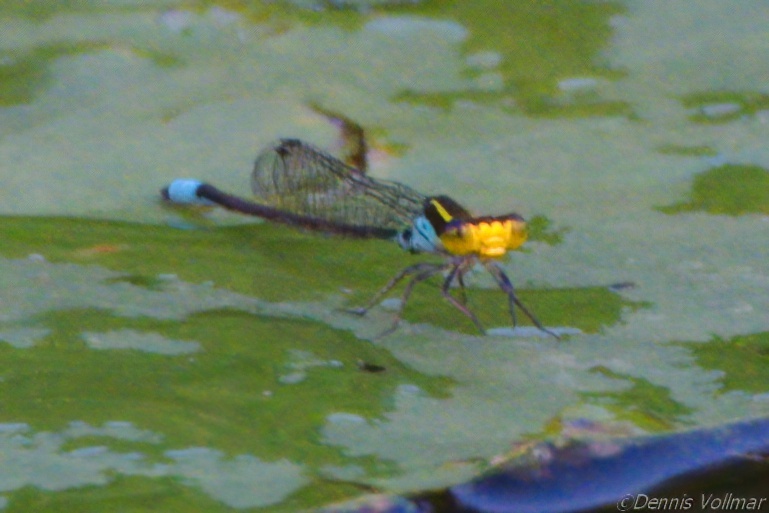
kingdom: Animalia
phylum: Arthropoda
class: Insecta
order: Odonata
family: Coenagrionidae
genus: Neoerythromma
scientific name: Neoerythromma cultellatum
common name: Caribbean yellowface
